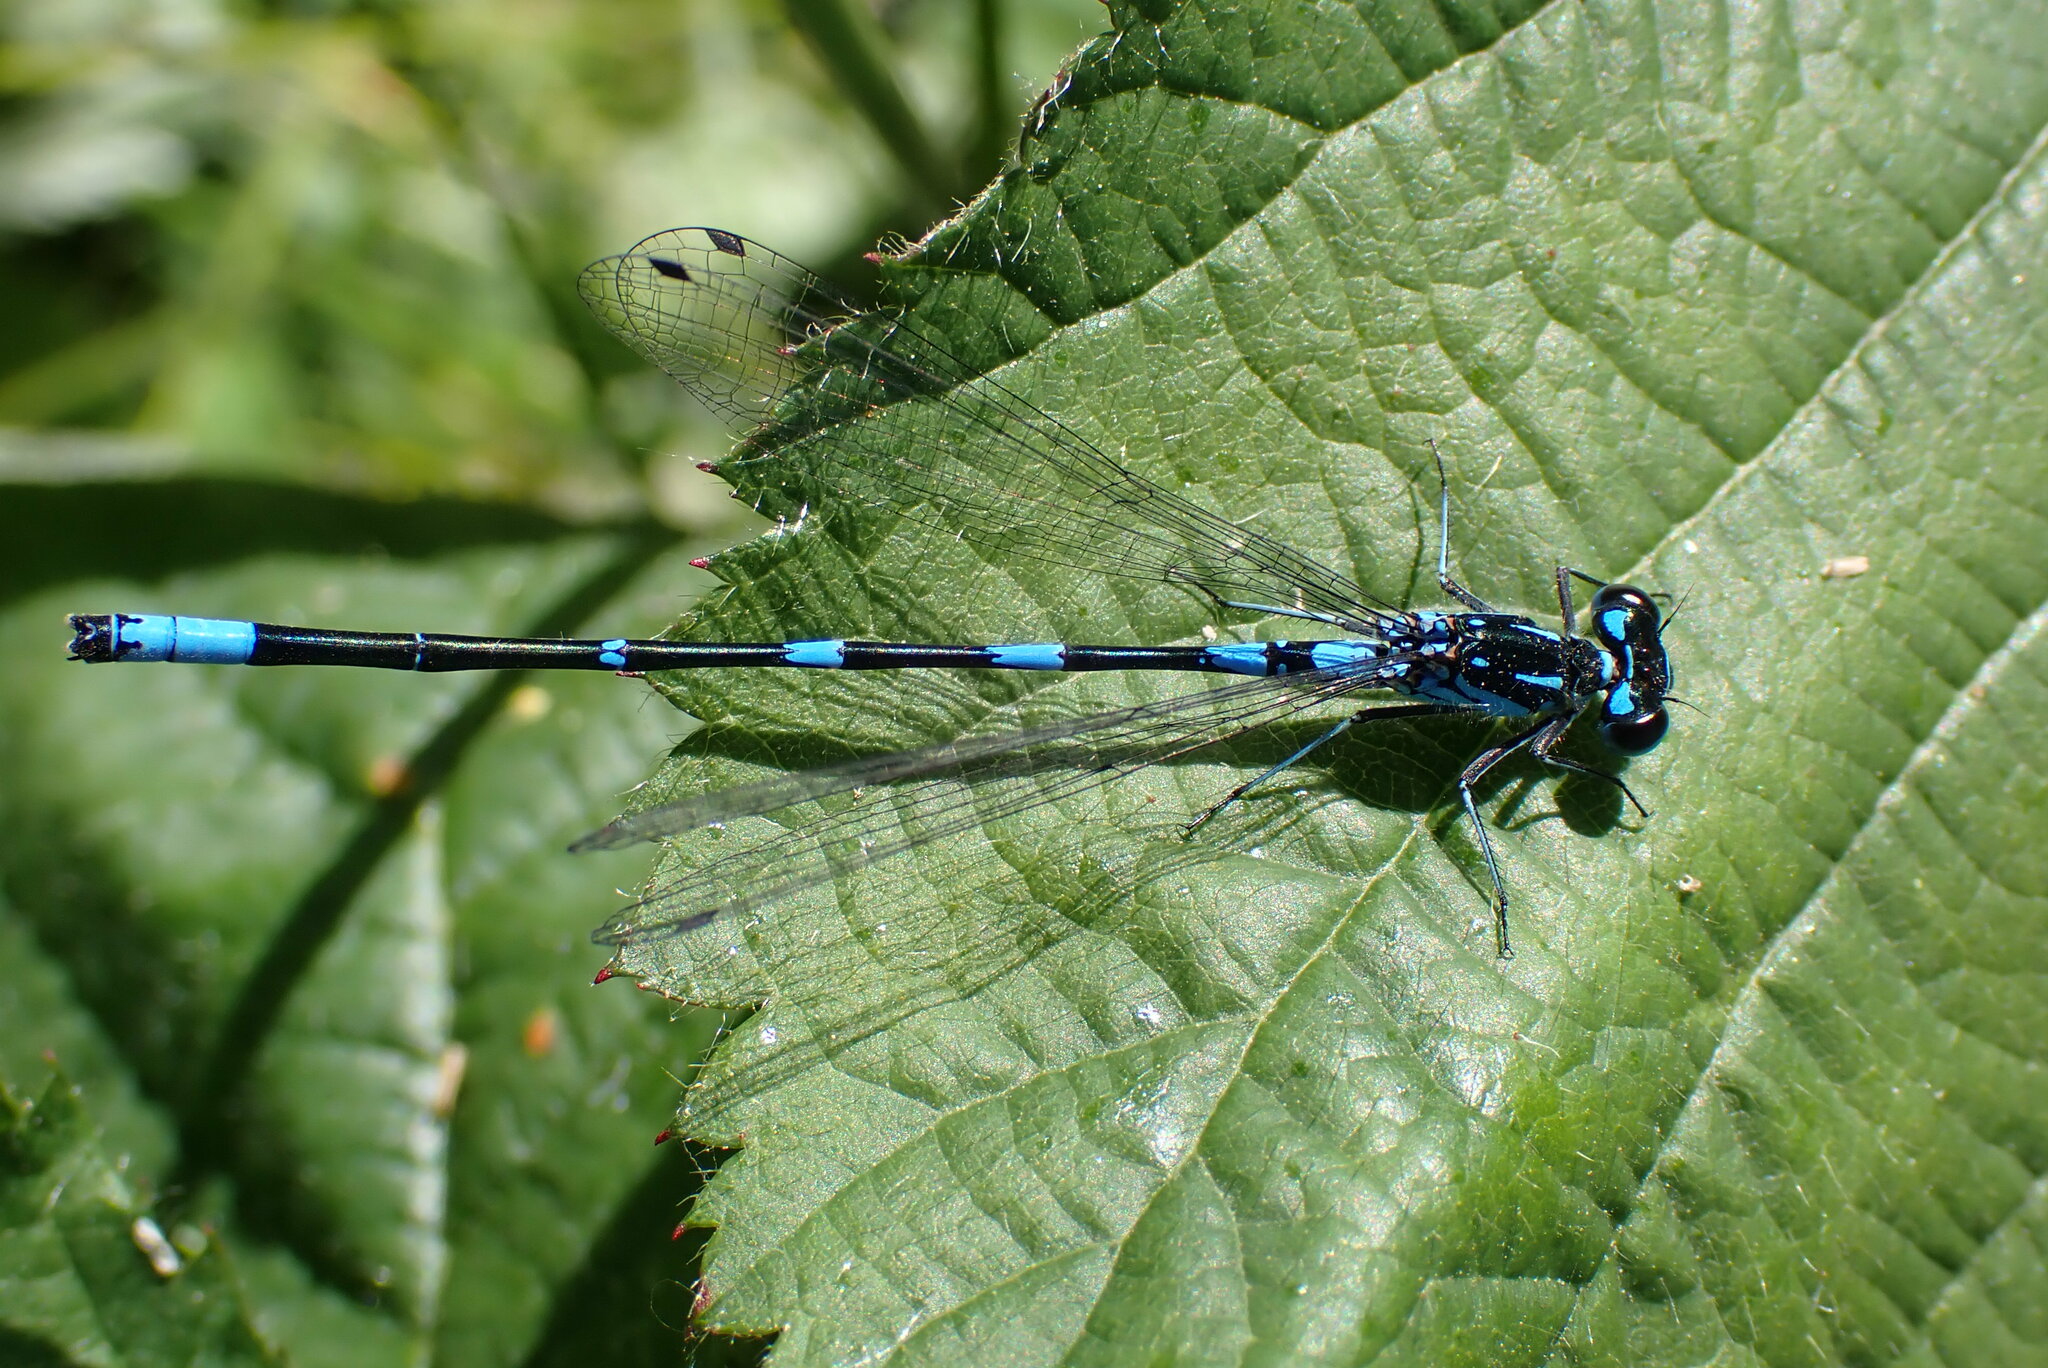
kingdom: Animalia
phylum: Arthropoda
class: Insecta
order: Odonata
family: Coenagrionidae
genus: Coenagrion
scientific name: Coenagrion pulchellum
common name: Variable bluet
